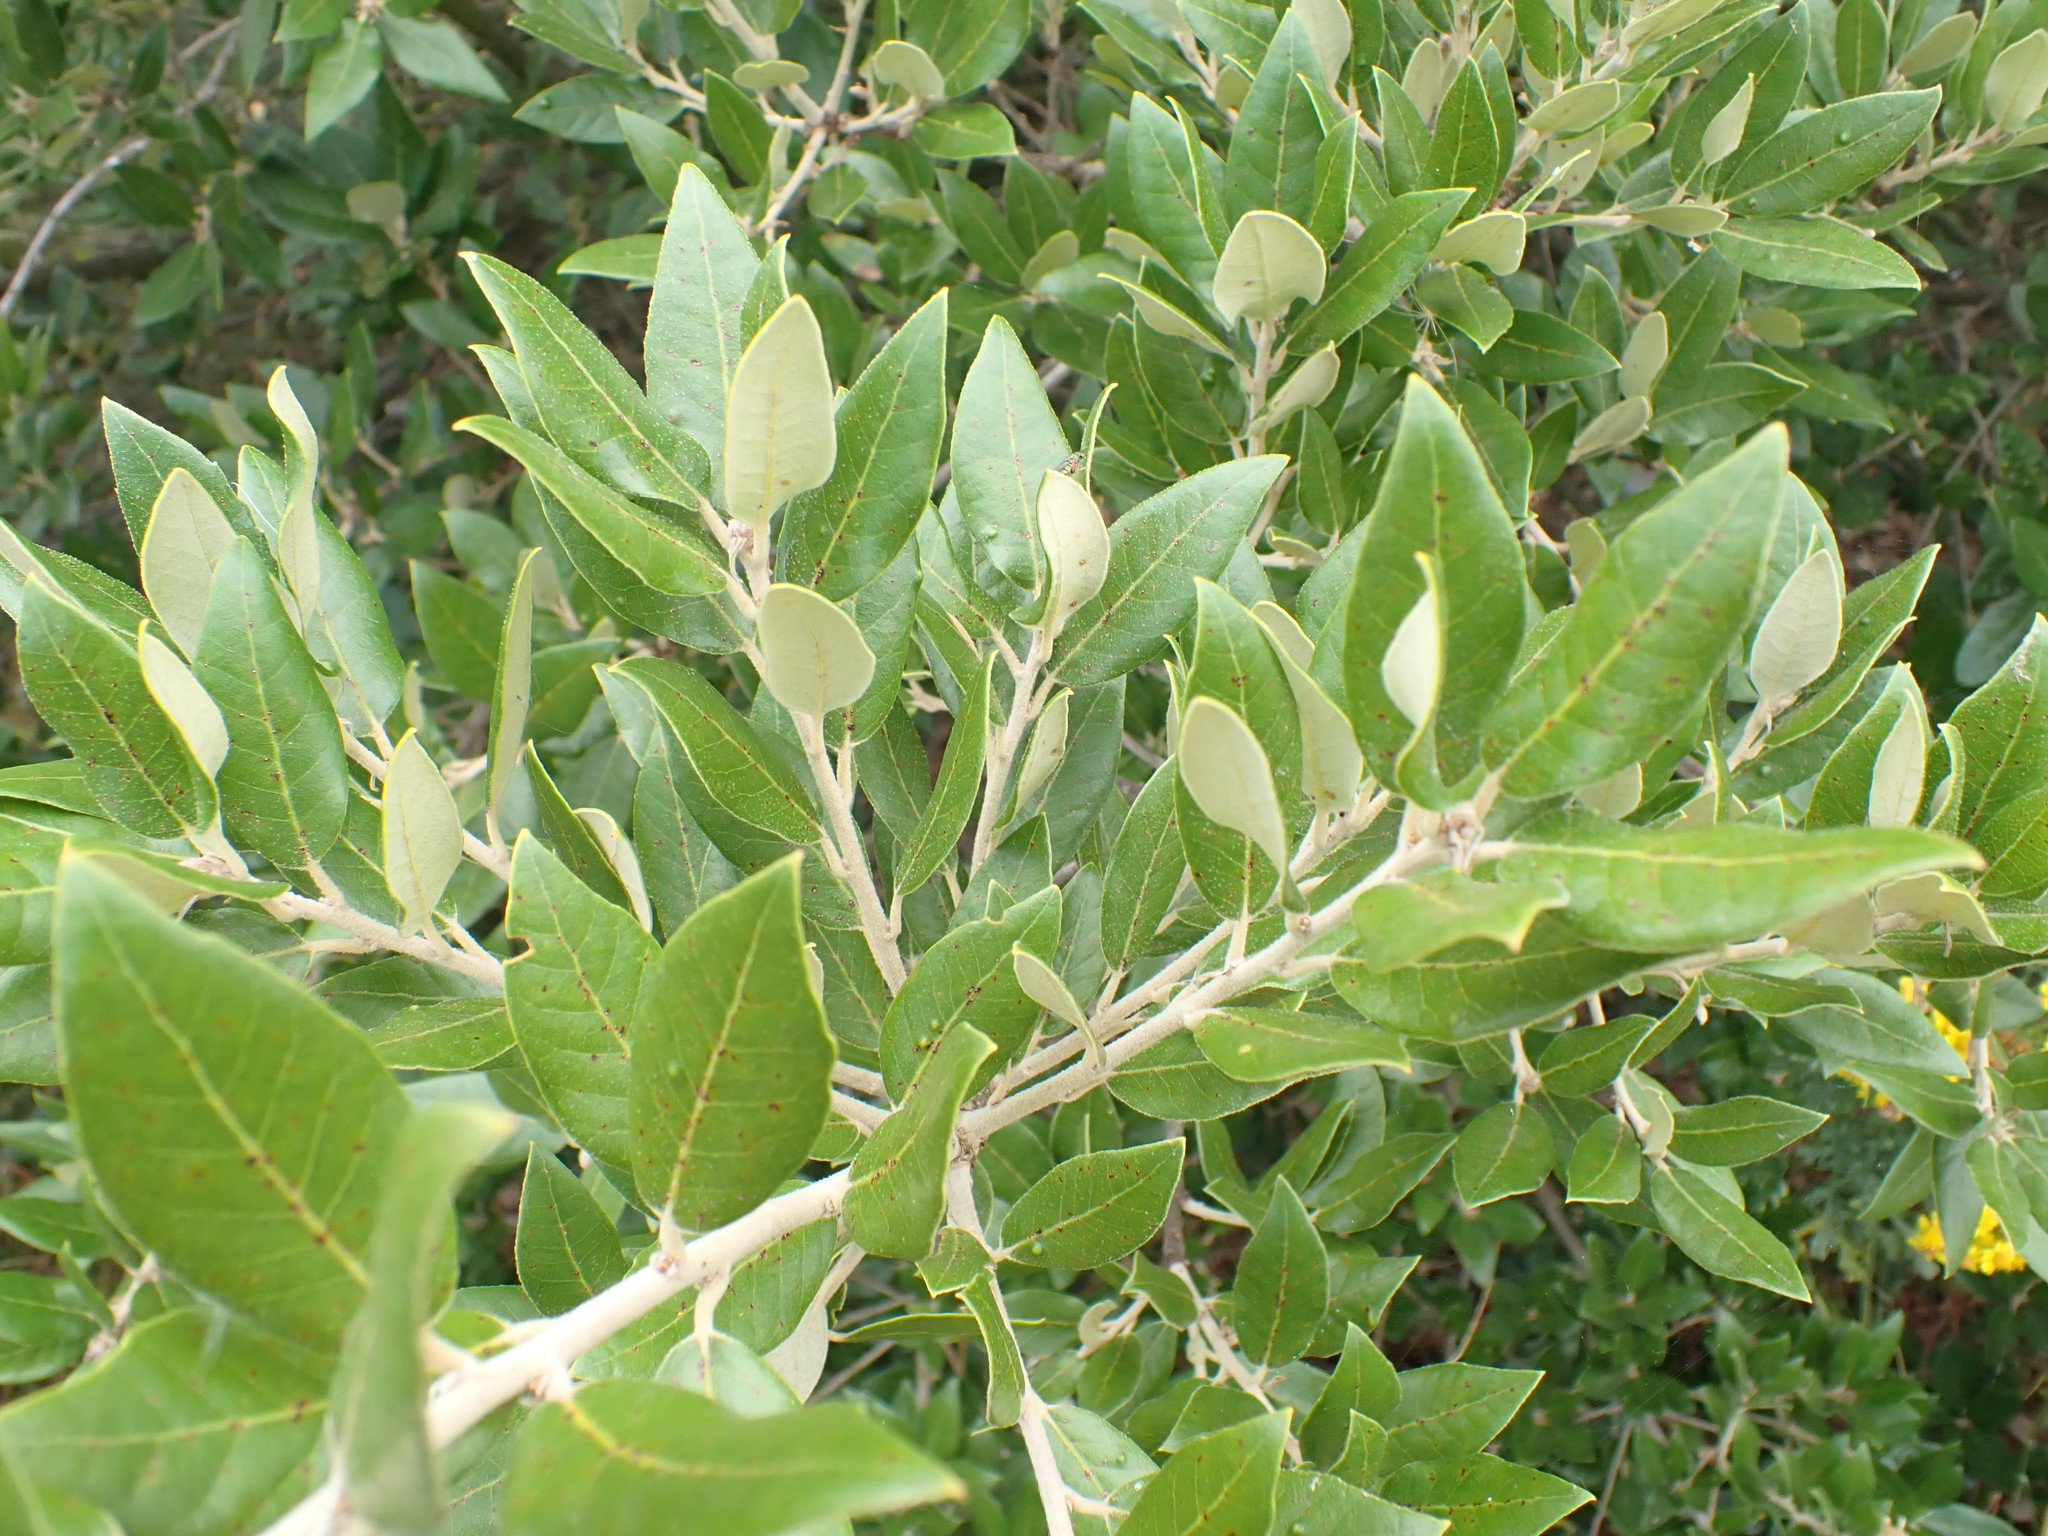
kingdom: Plantae
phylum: Tracheophyta
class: Magnoliopsida
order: Fagales
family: Fagaceae
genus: Quercus
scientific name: Quercus ilex
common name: Evergreen oak
